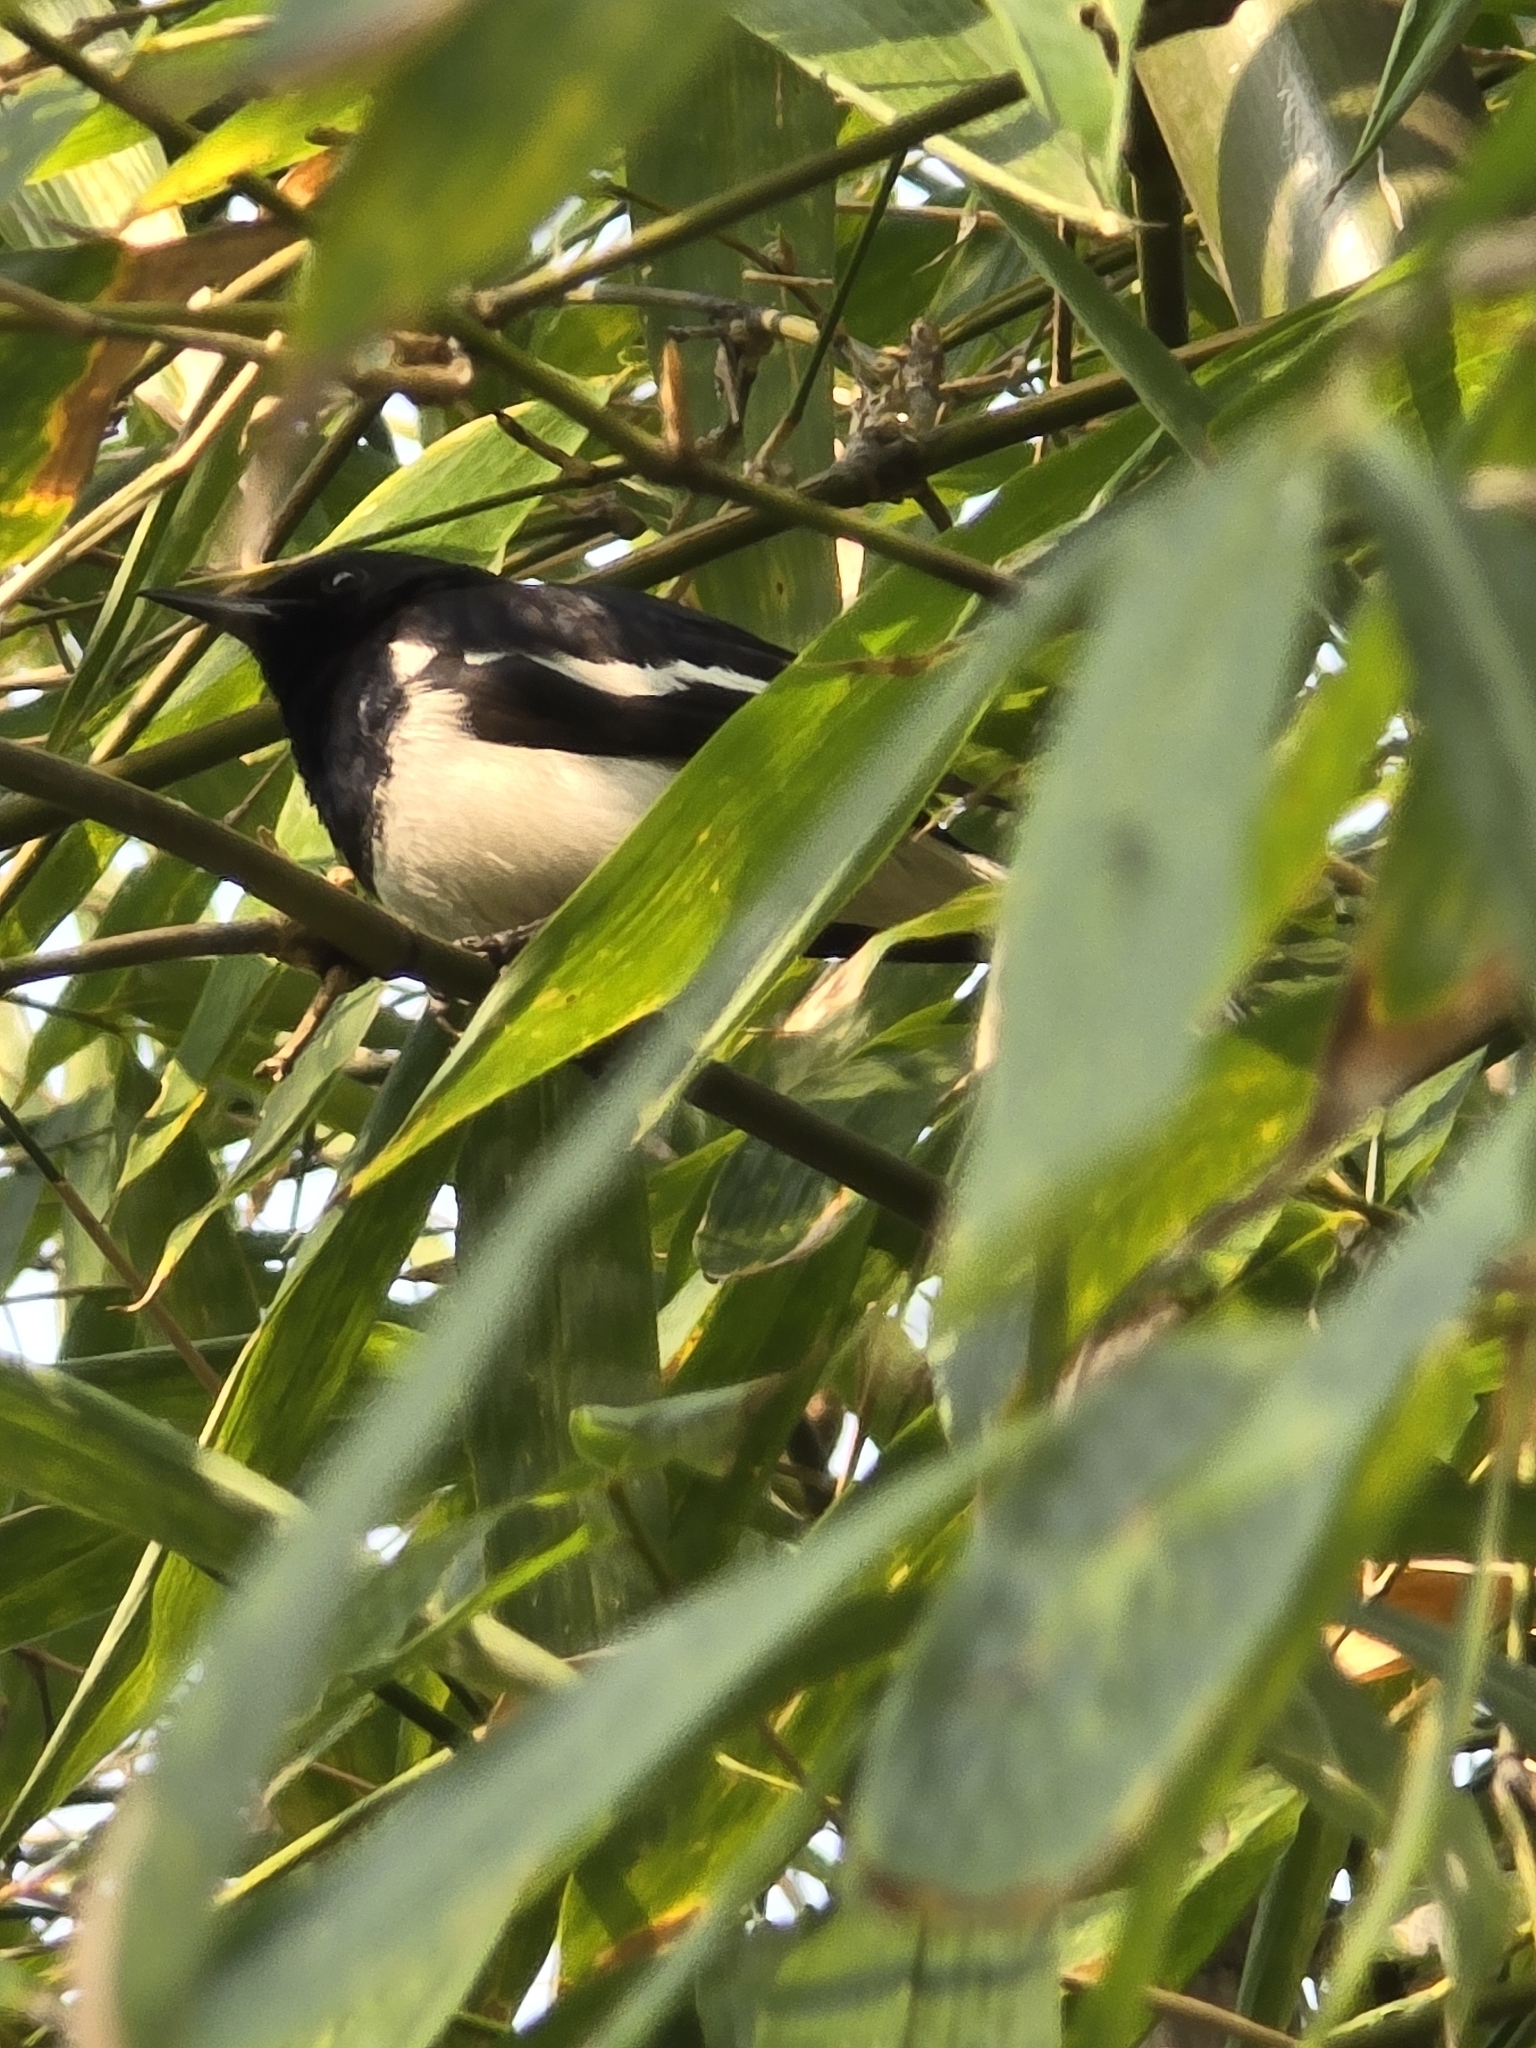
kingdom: Animalia
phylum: Chordata
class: Aves
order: Passeriformes
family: Muscicapidae
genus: Copsychus
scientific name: Copsychus saularis
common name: Oriental magpie-robin
